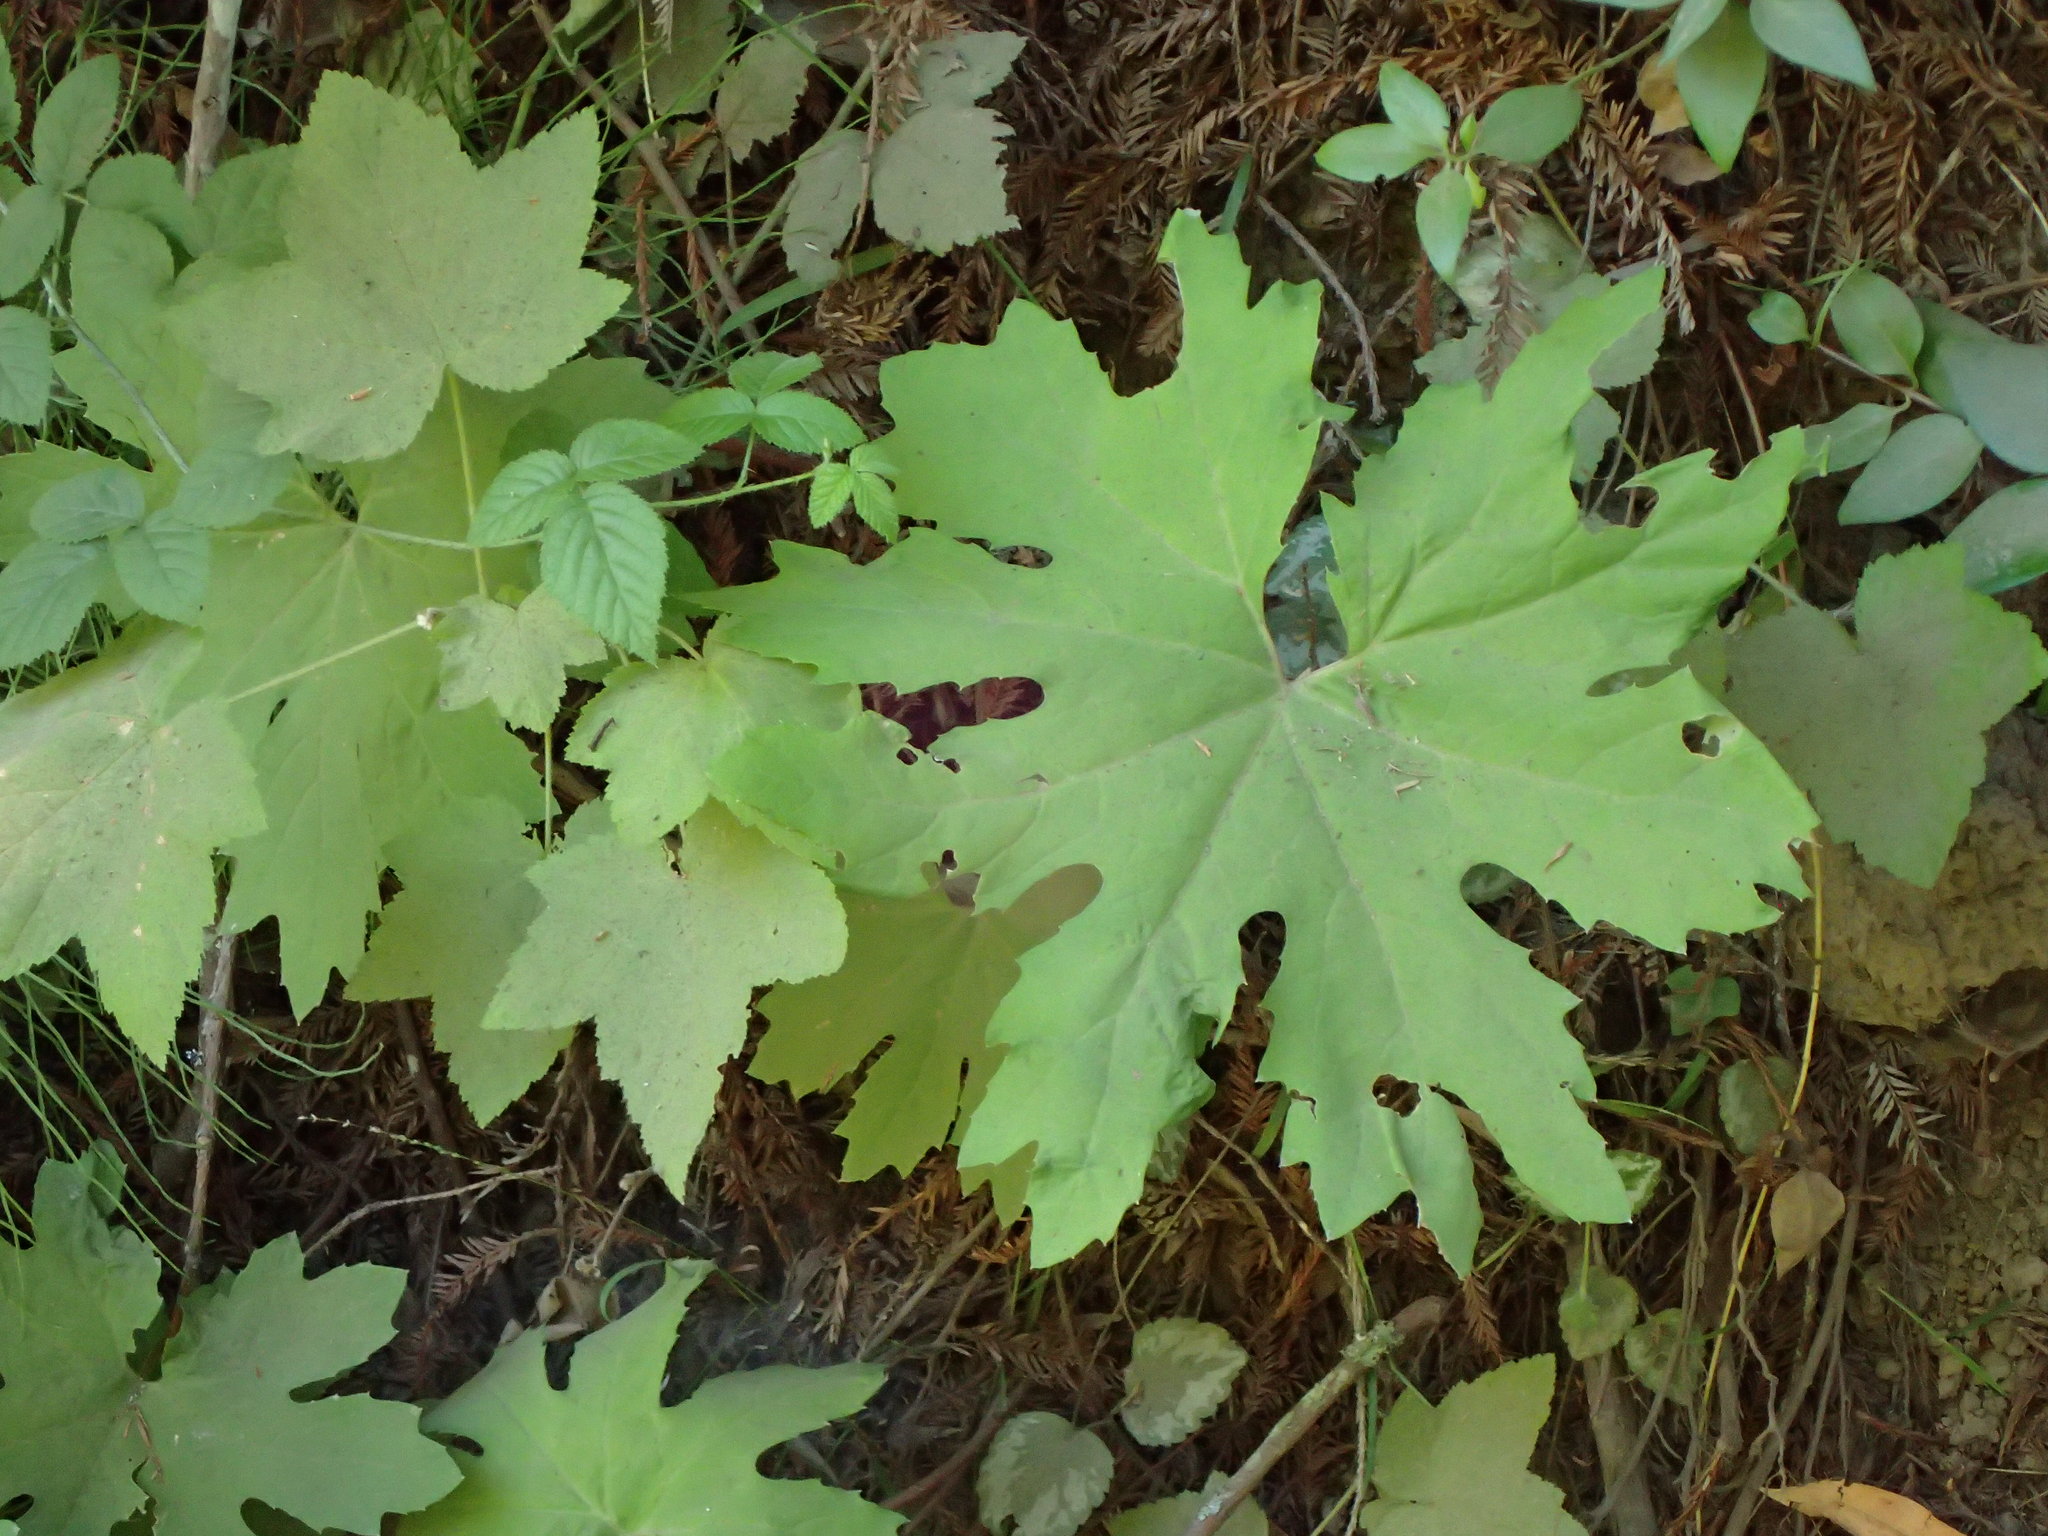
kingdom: Plantae
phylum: Tracheophyta
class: Magnoliopsida
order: Asterales
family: Asteraceae
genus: Petasites
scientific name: Petasites frigidus
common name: Arctic butterbur
